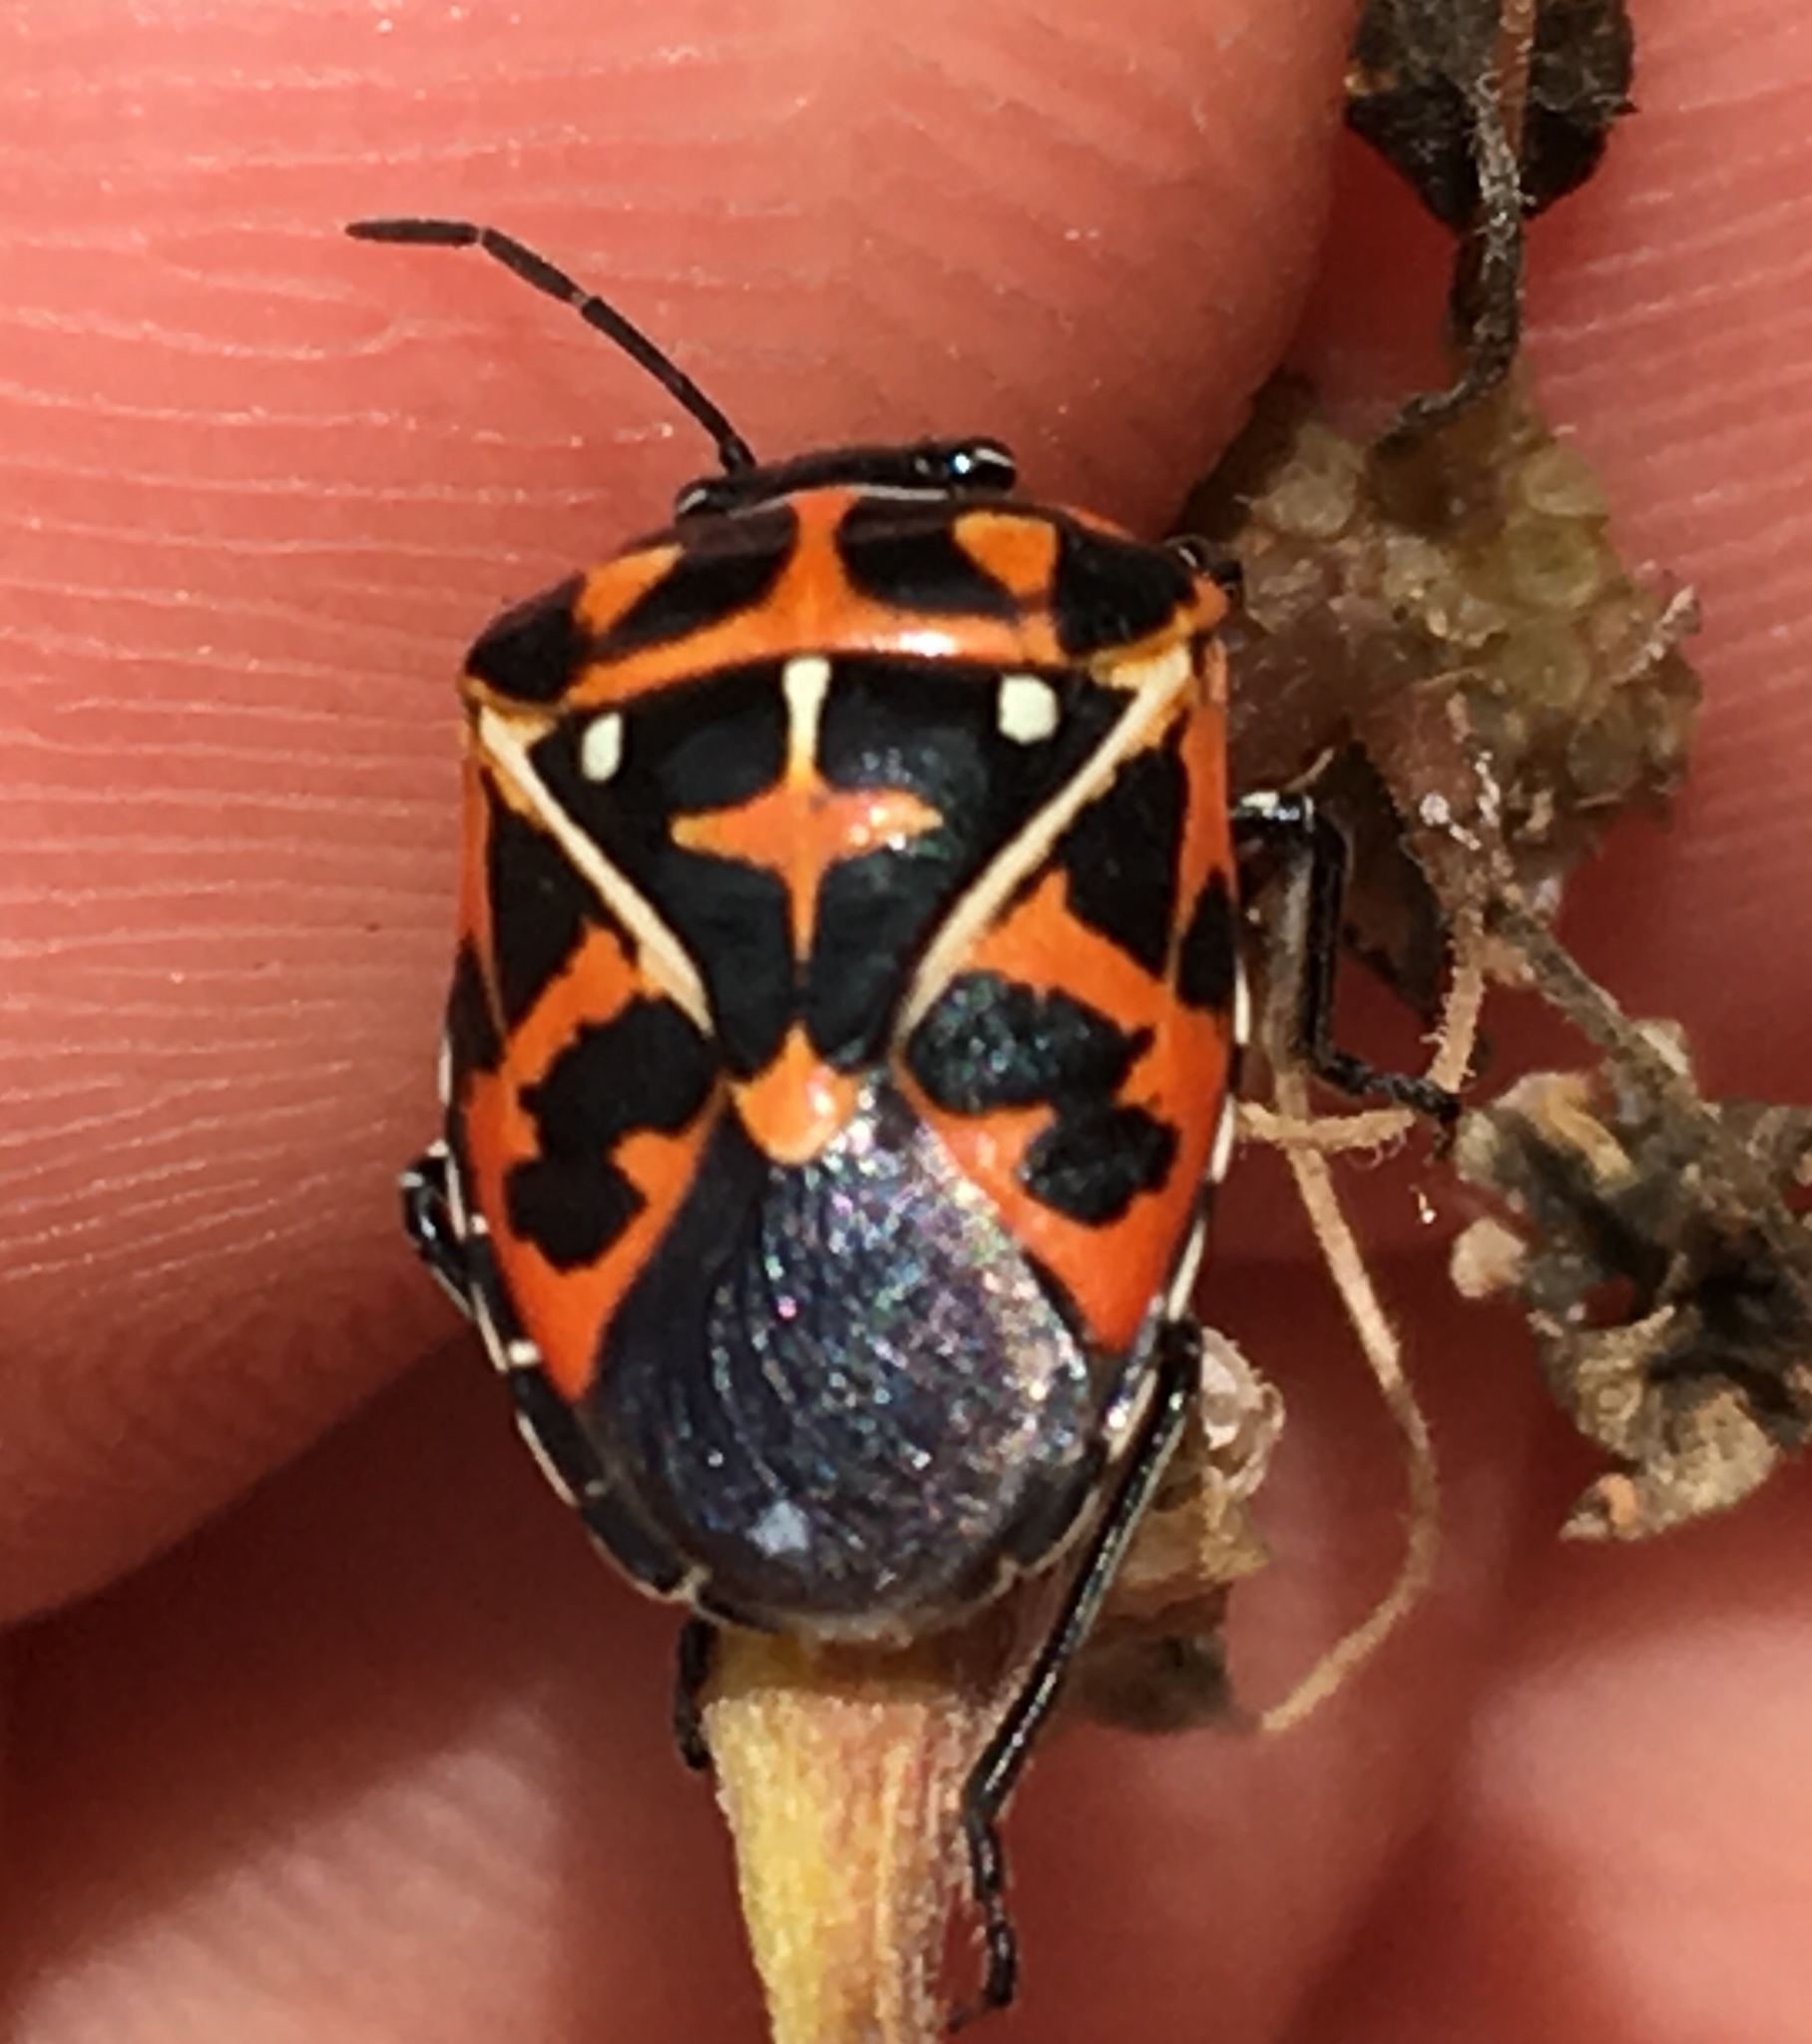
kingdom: Animalia
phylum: Arthropoda
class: Insecta
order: Hemiptera
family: Pentatomidae
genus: Murgantia
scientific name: Murgantia histrionica
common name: Harlequin bug
